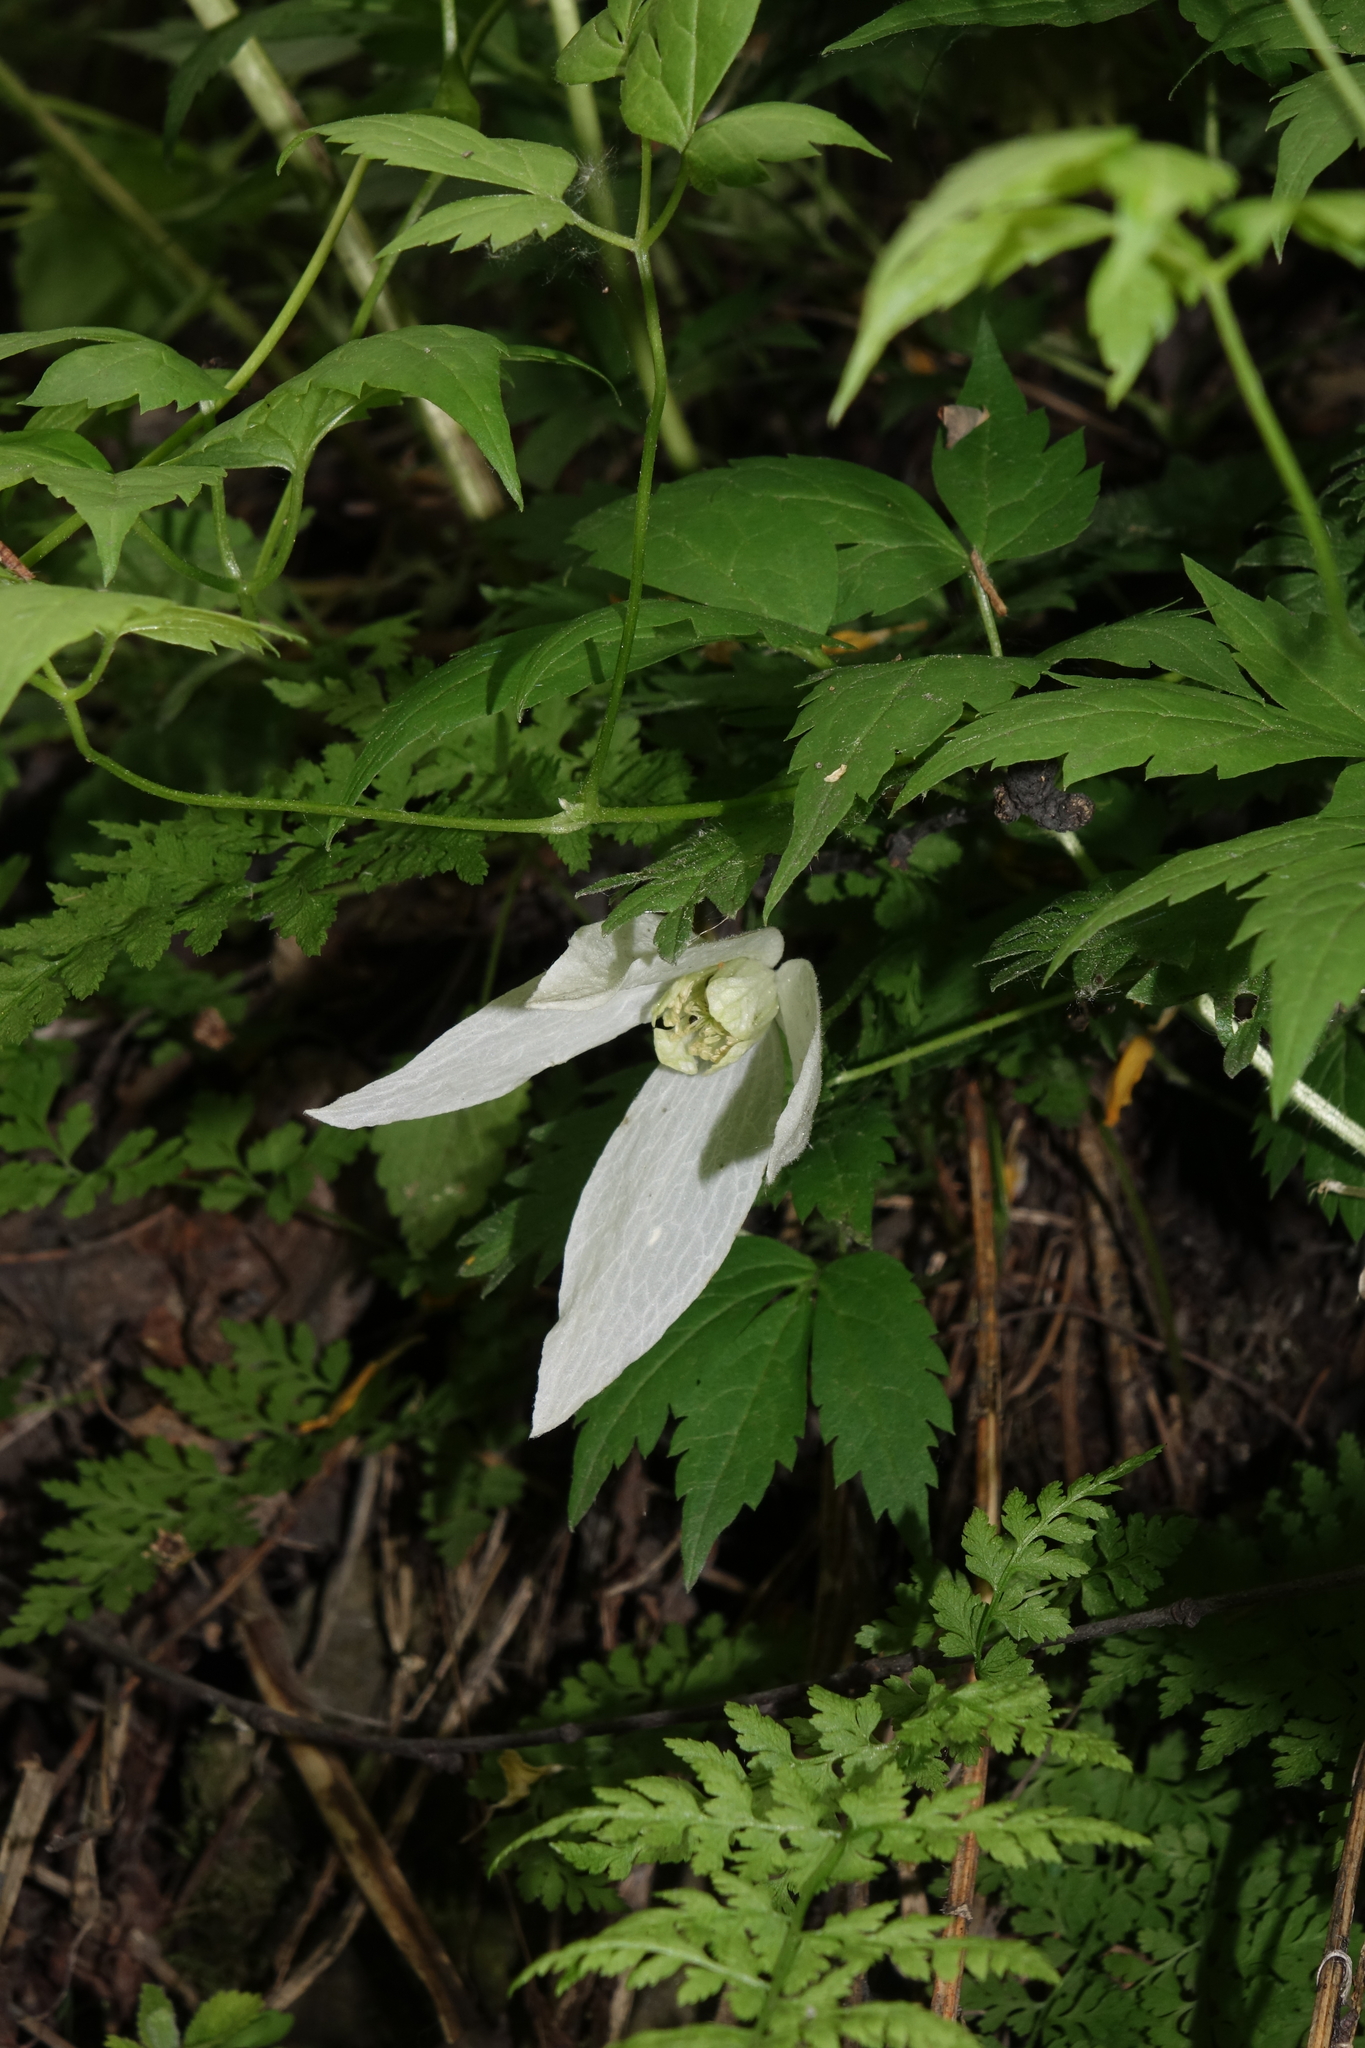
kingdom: Plantae
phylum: Tracheophyta
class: Magnoliopsida
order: Ranunculales
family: Ranunculaceae
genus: Clematis
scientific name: Clematis sibirica
